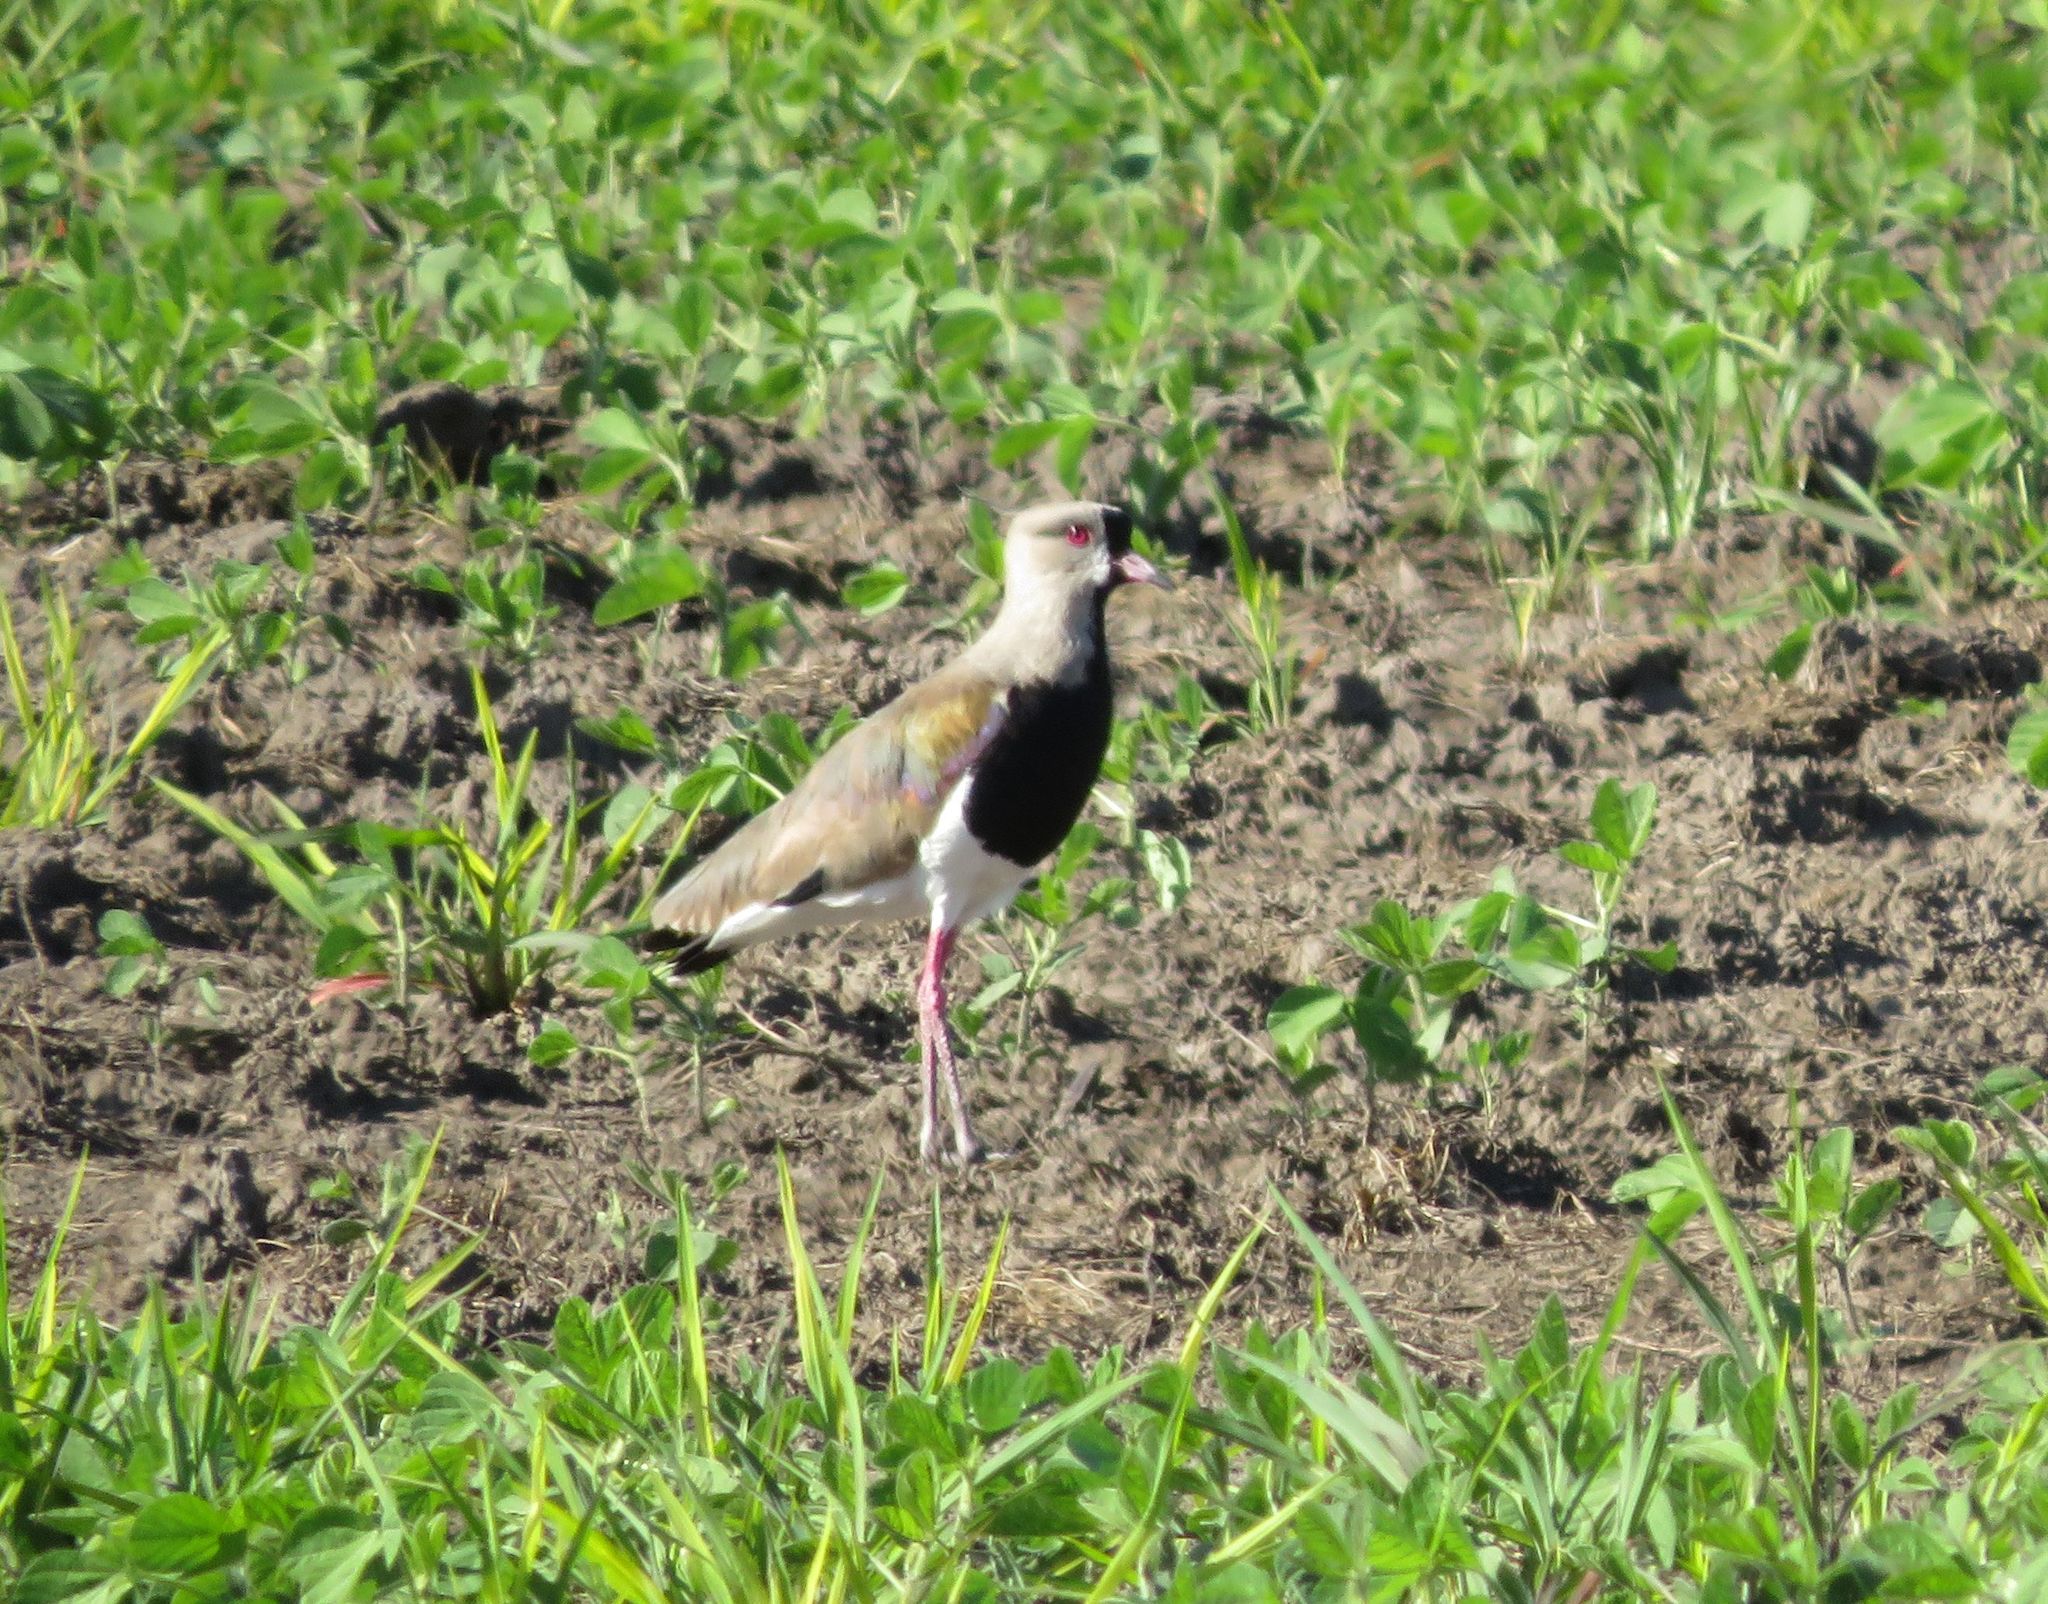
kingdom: Animalia
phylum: Chordata
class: Aves
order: Charadriiformes
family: Charadriidae
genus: Vanellus
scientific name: Vanellus chilensis
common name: Southern lapwing
